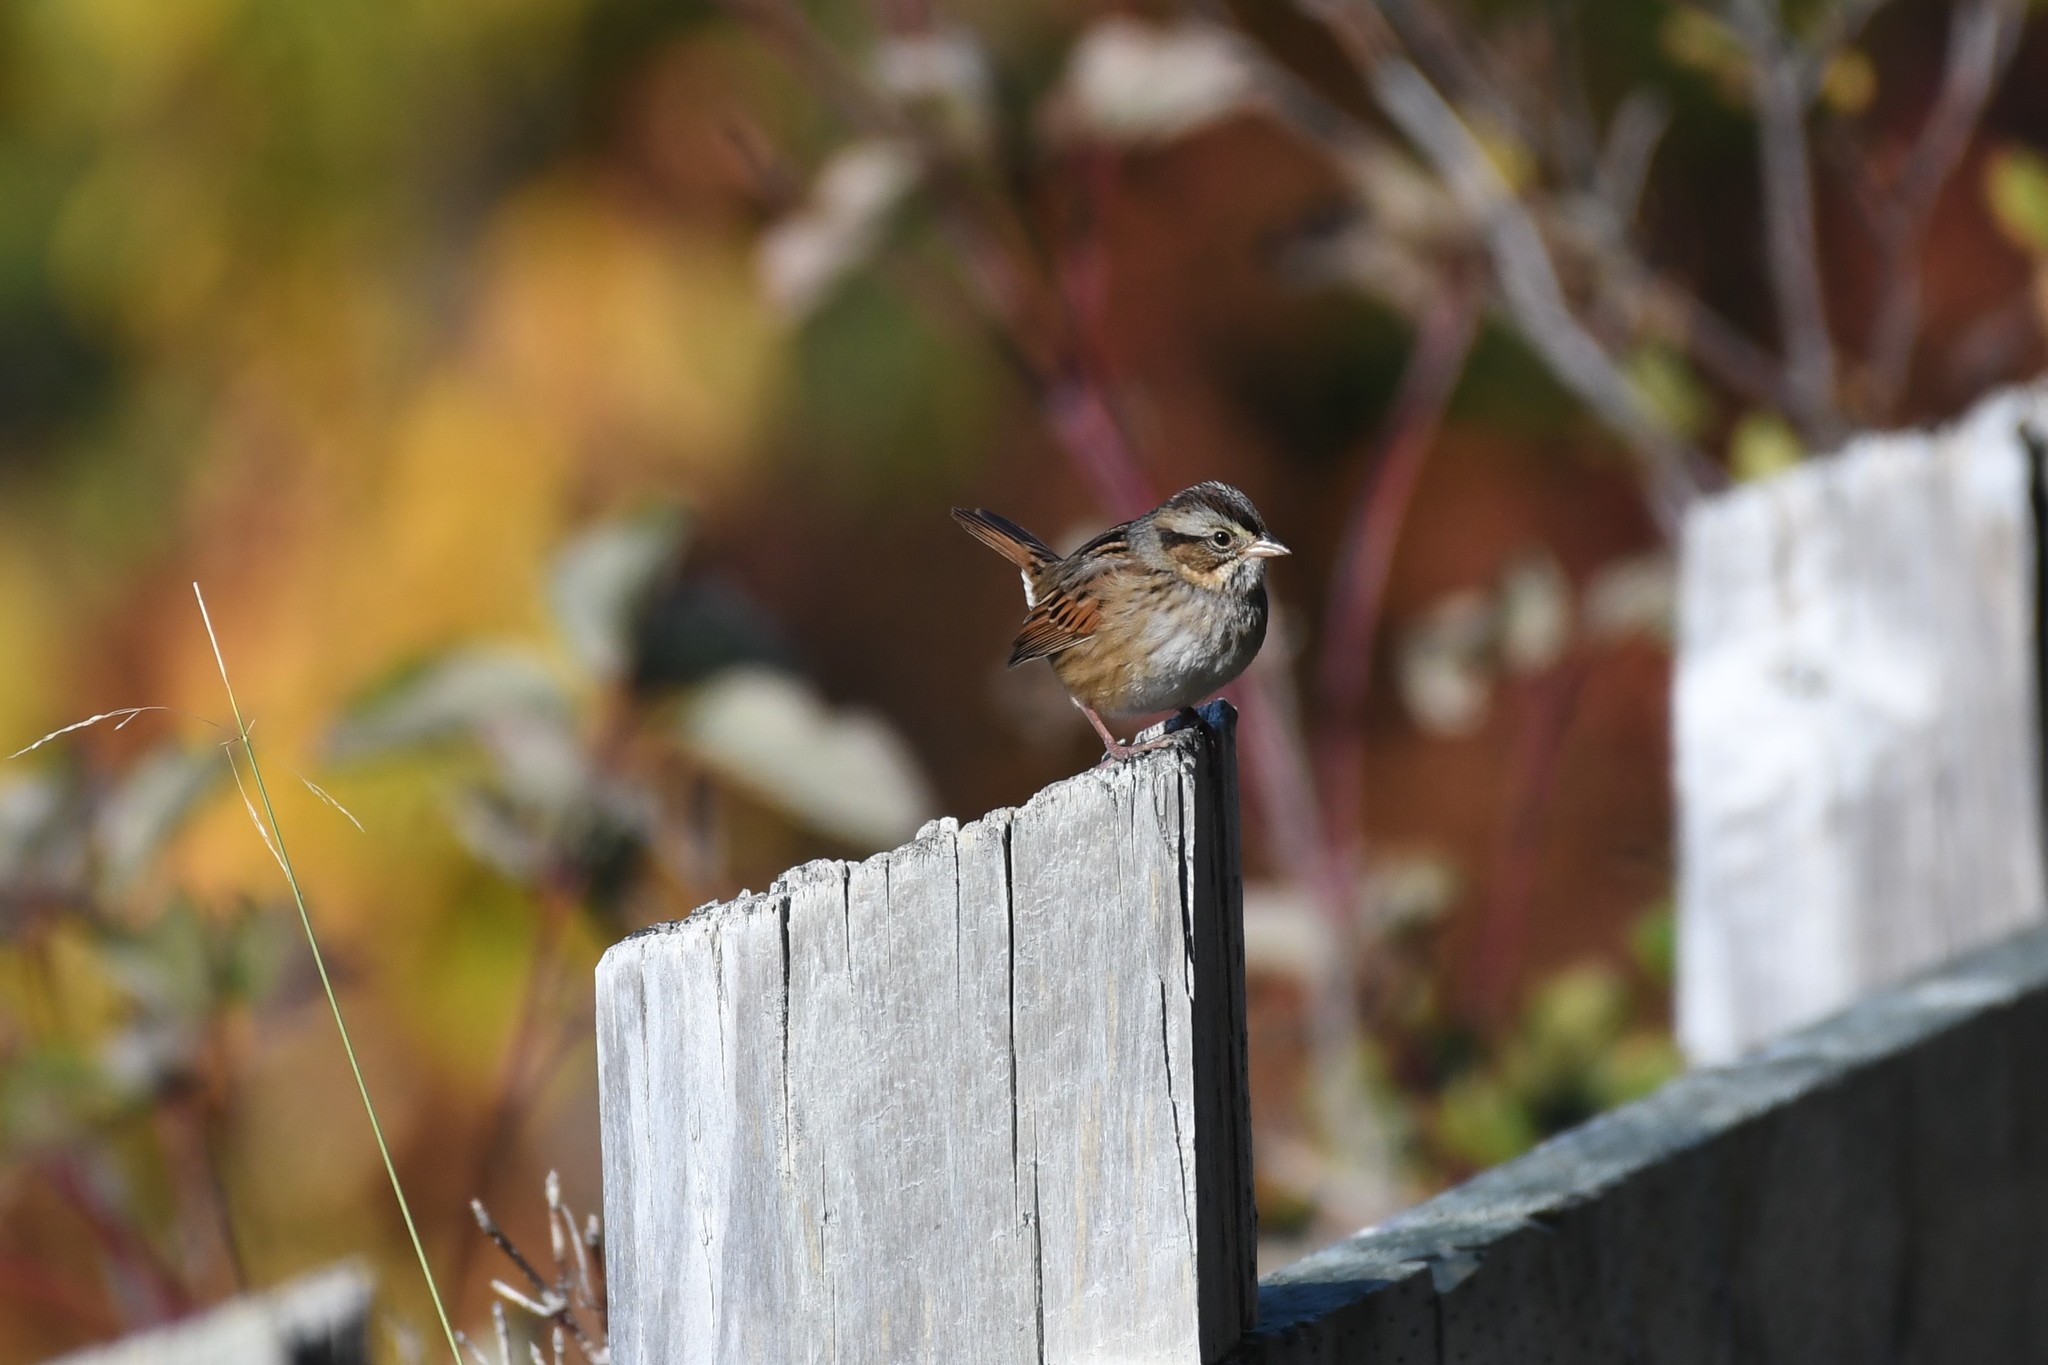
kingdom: Animalia
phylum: Chordata
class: Aves
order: Passeriformes
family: Passerellidae
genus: Melospiza
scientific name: Melospiza georgiana
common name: Swamp sparrow
